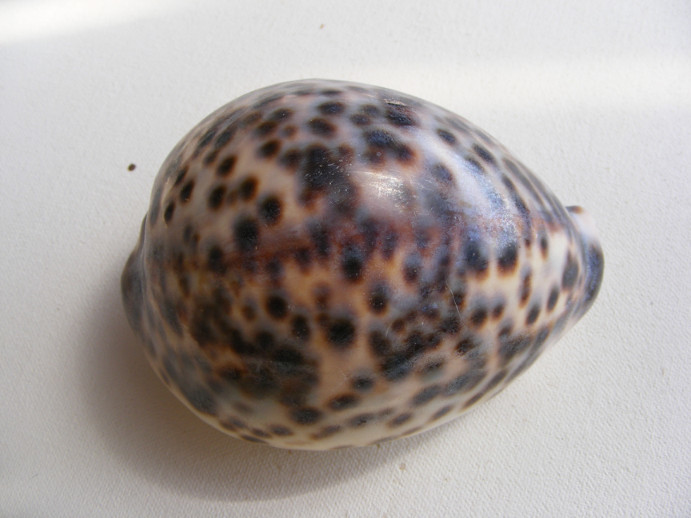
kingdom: Animalia
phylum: Mollusca
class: Gastropoda
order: Littorinimorpha
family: Cypraeidae
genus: Cypraea
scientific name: Cypraea tigris
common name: Tiger cowrie
